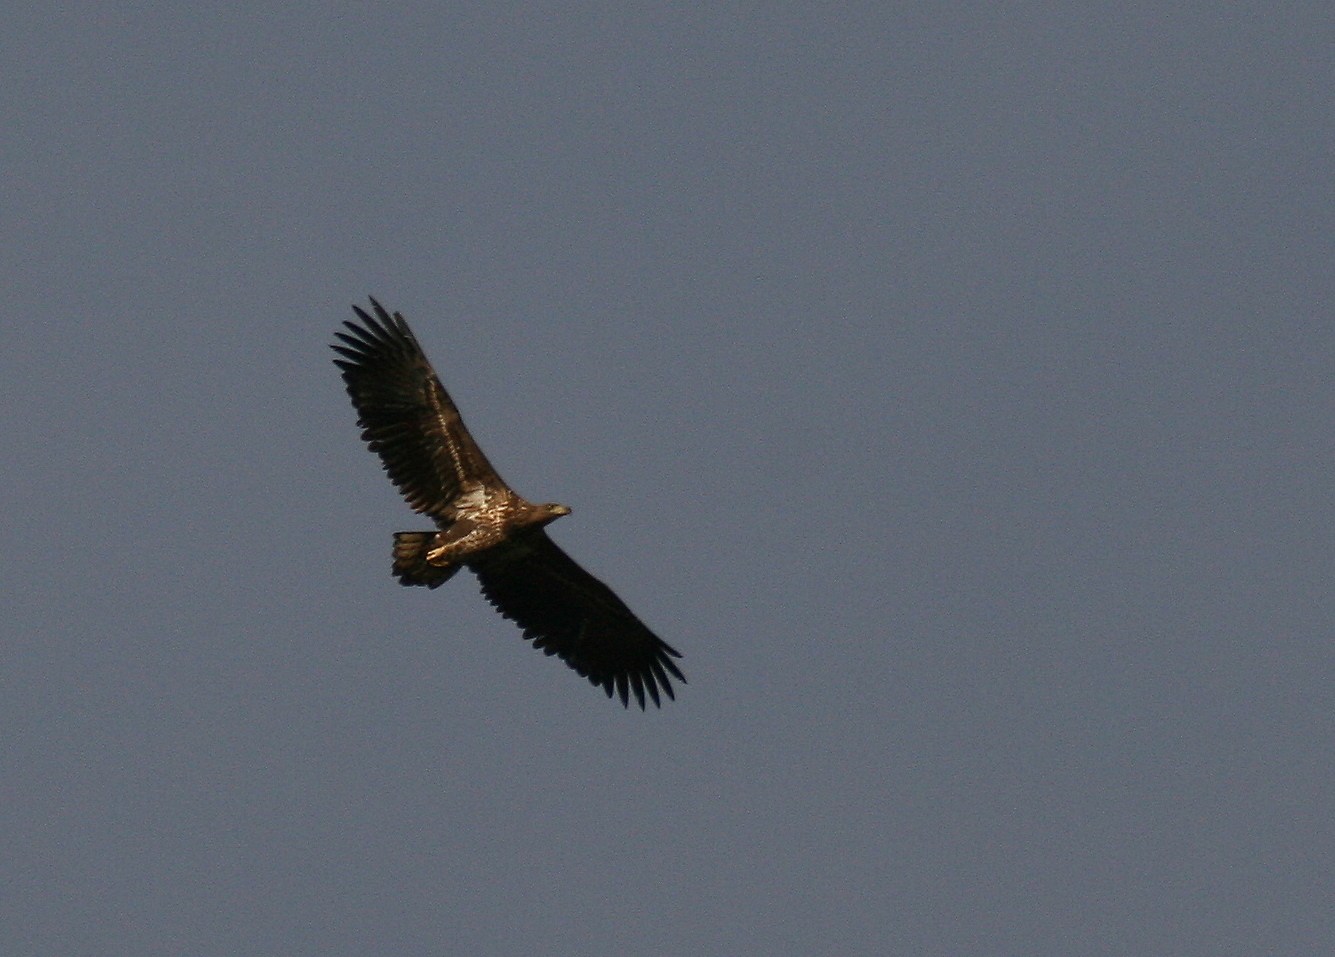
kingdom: Animalia
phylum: Chordata
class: Aves
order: Accipitriformes
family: Accipitridae
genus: Haliaeetus
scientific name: Haliaeetus albicilla
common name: White-tailed eagle
